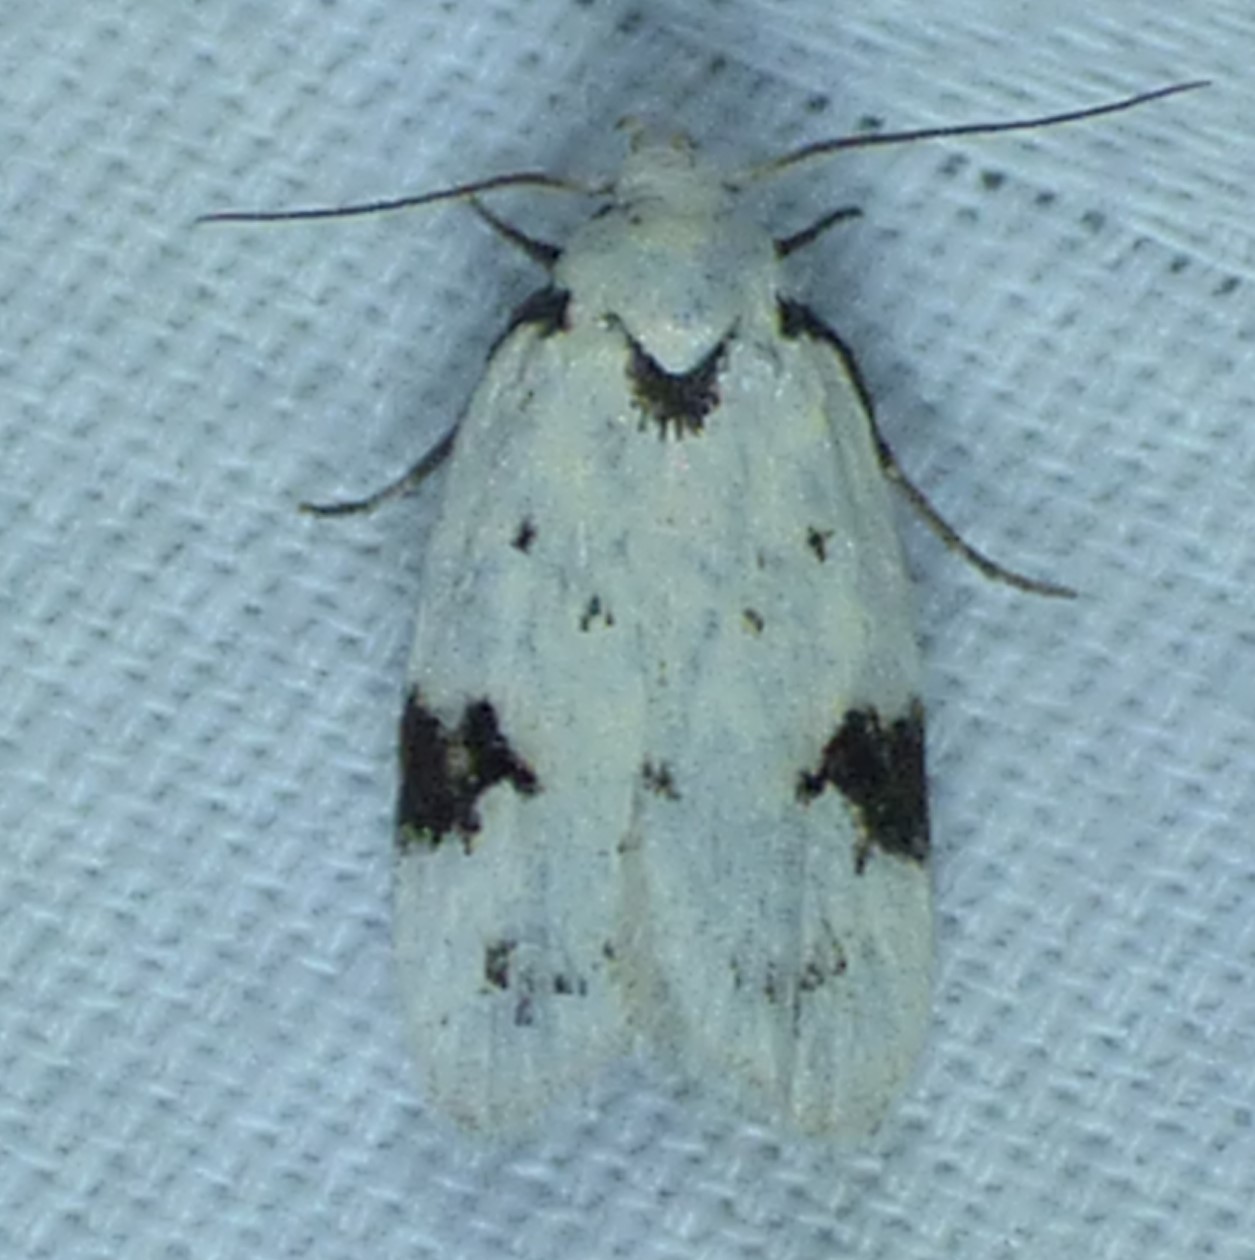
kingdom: Animalia
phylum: Arthropoda
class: Insecta
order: Lepidoptera
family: Oecophoridae
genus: Inga
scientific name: Inga sparsiciliella
